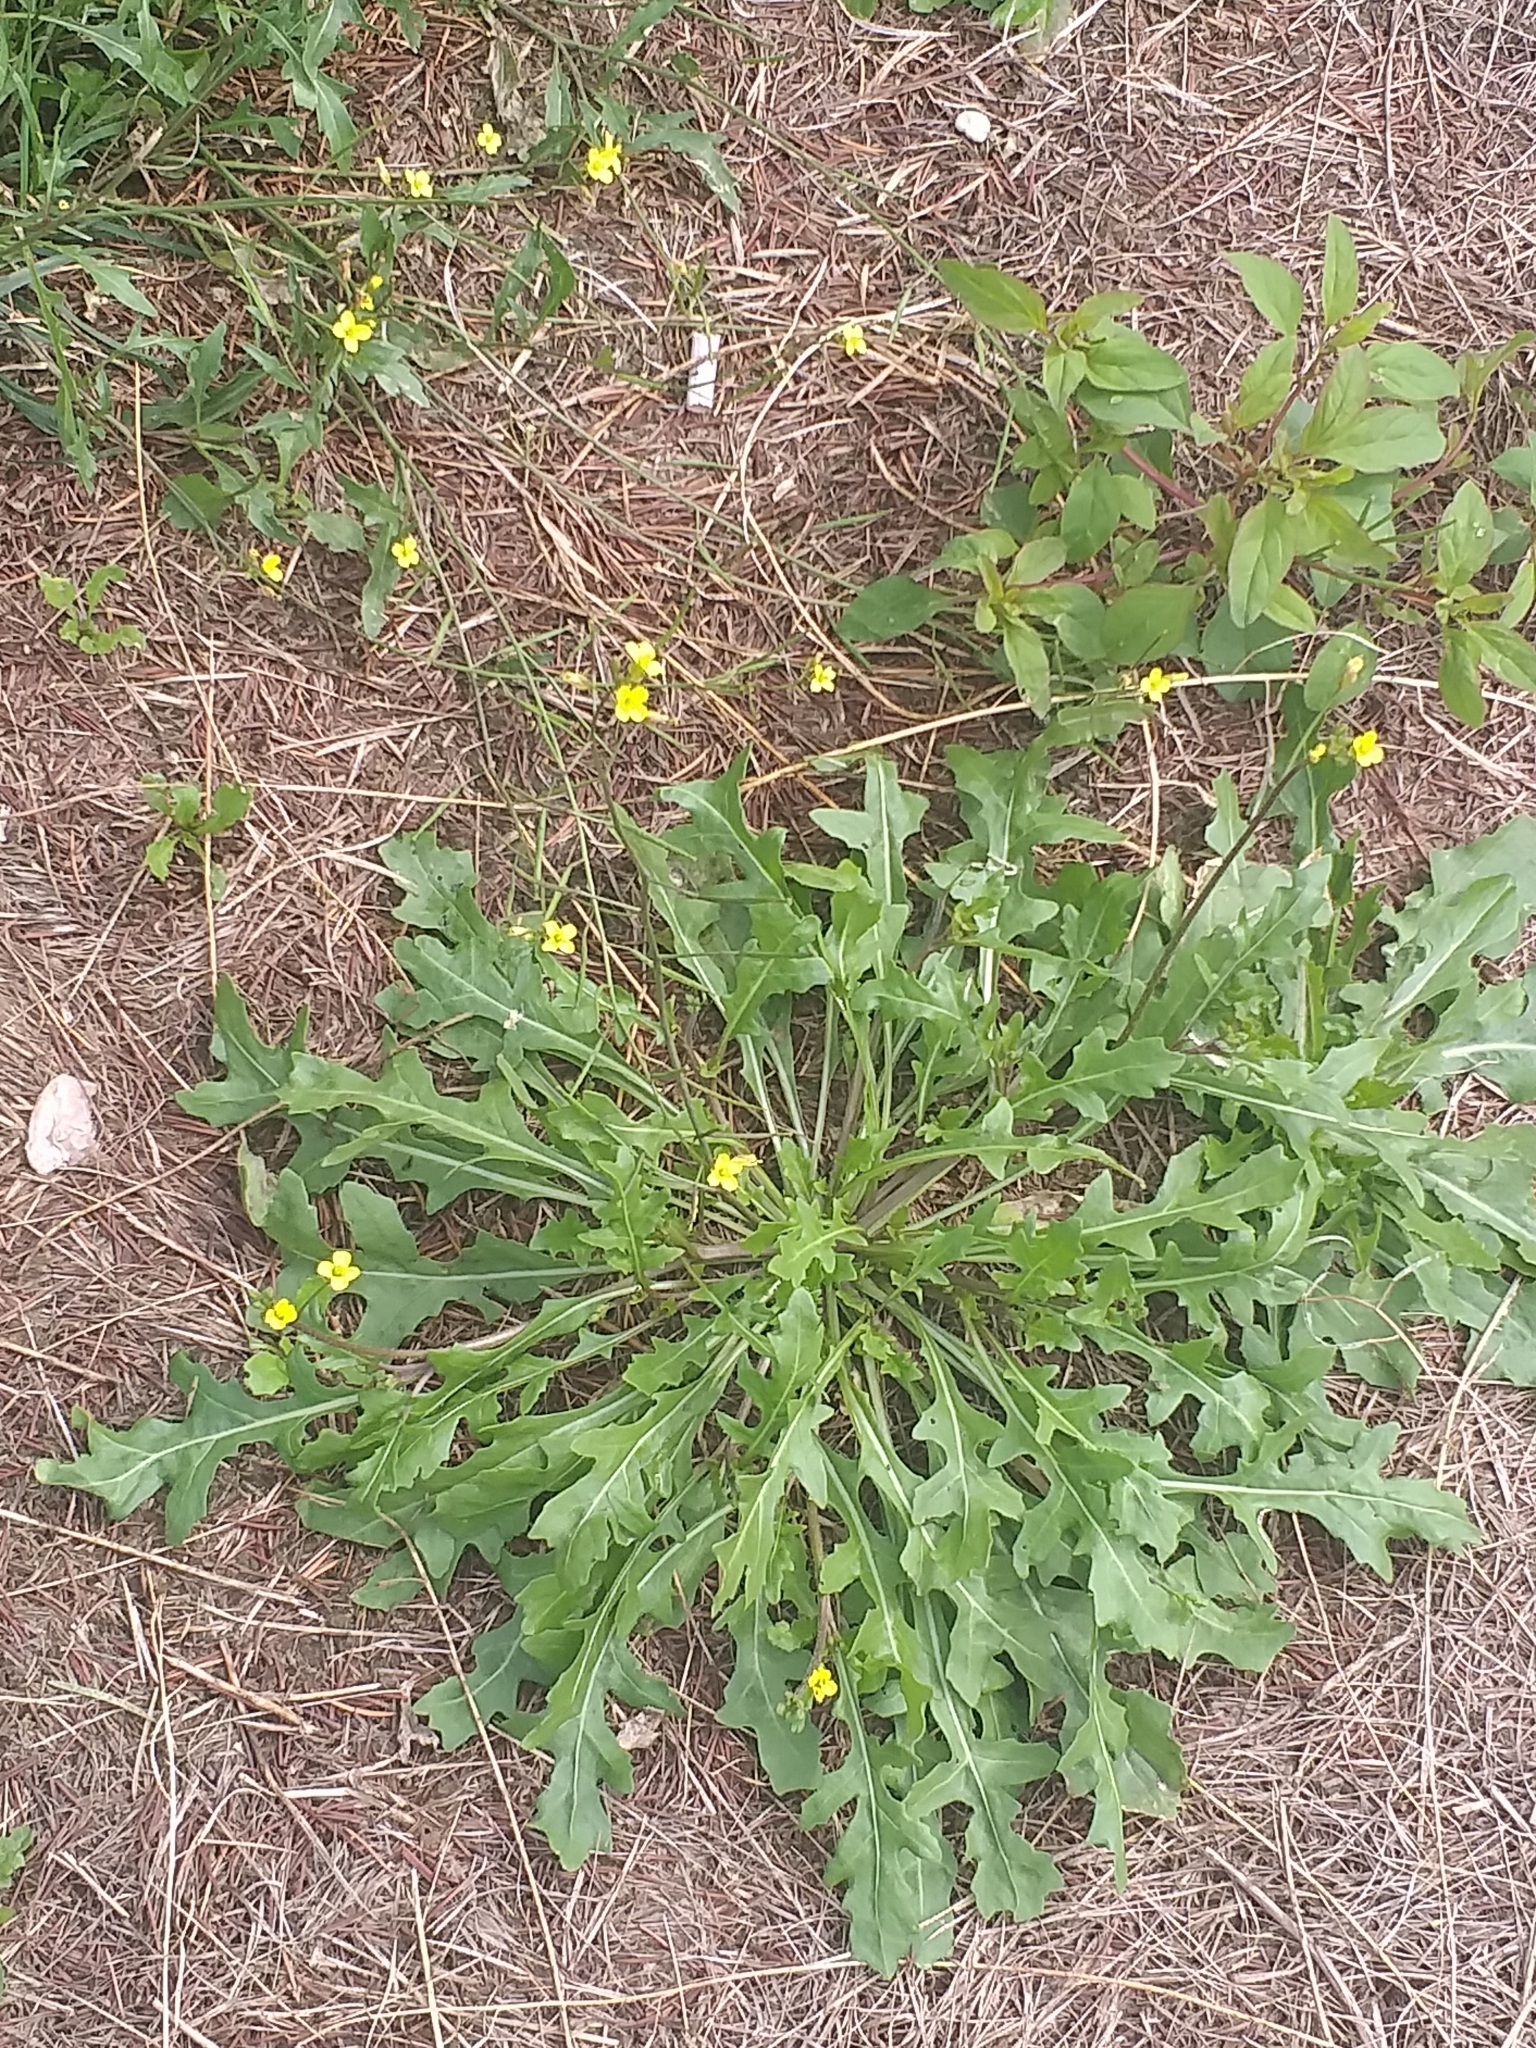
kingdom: Plantae
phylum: Tracheophyta
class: Magnoliopsida
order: Brassicales
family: Brassicaceae
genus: Diplotaxis
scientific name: Diplotaxis muralis
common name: Annual wall-rocket
